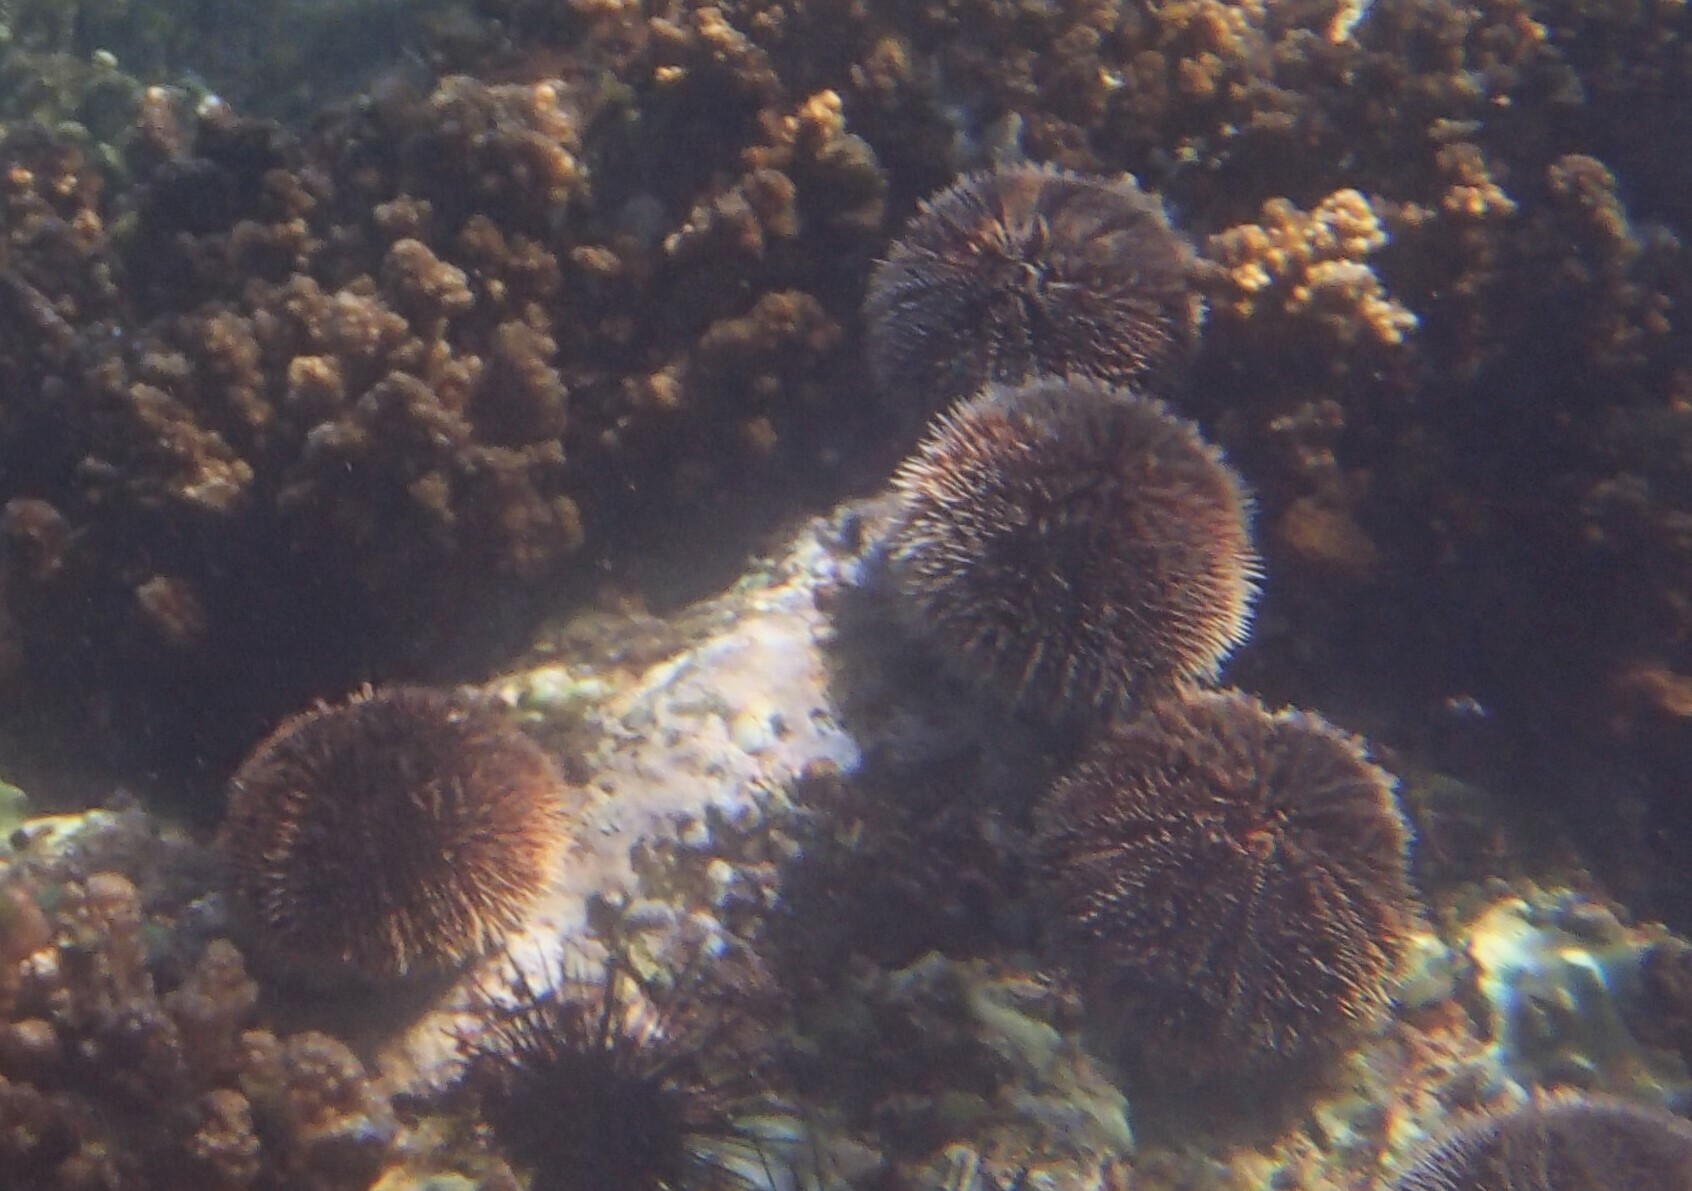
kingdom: Animalia
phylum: Echinodermata
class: Echinoidea
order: Camarodonta
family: Toxopneustidae
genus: Tripneustes
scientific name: Tripneustes depressus
